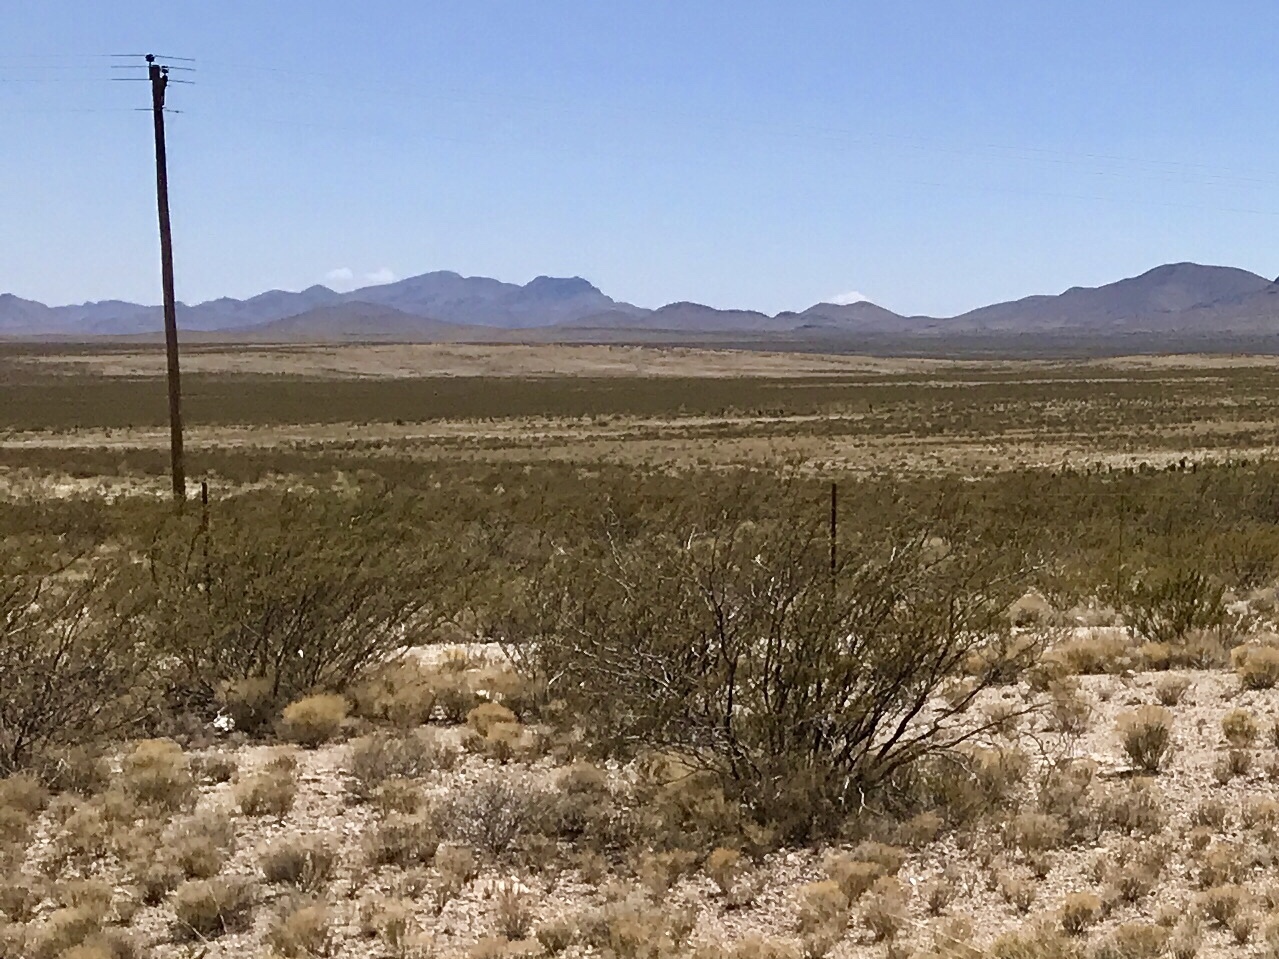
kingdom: Plantae
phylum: Tracheophyta
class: Magnoliopsida
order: Zygophyllales
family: Zygophyllaceae
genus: Larrea
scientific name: Larrea tridentata
